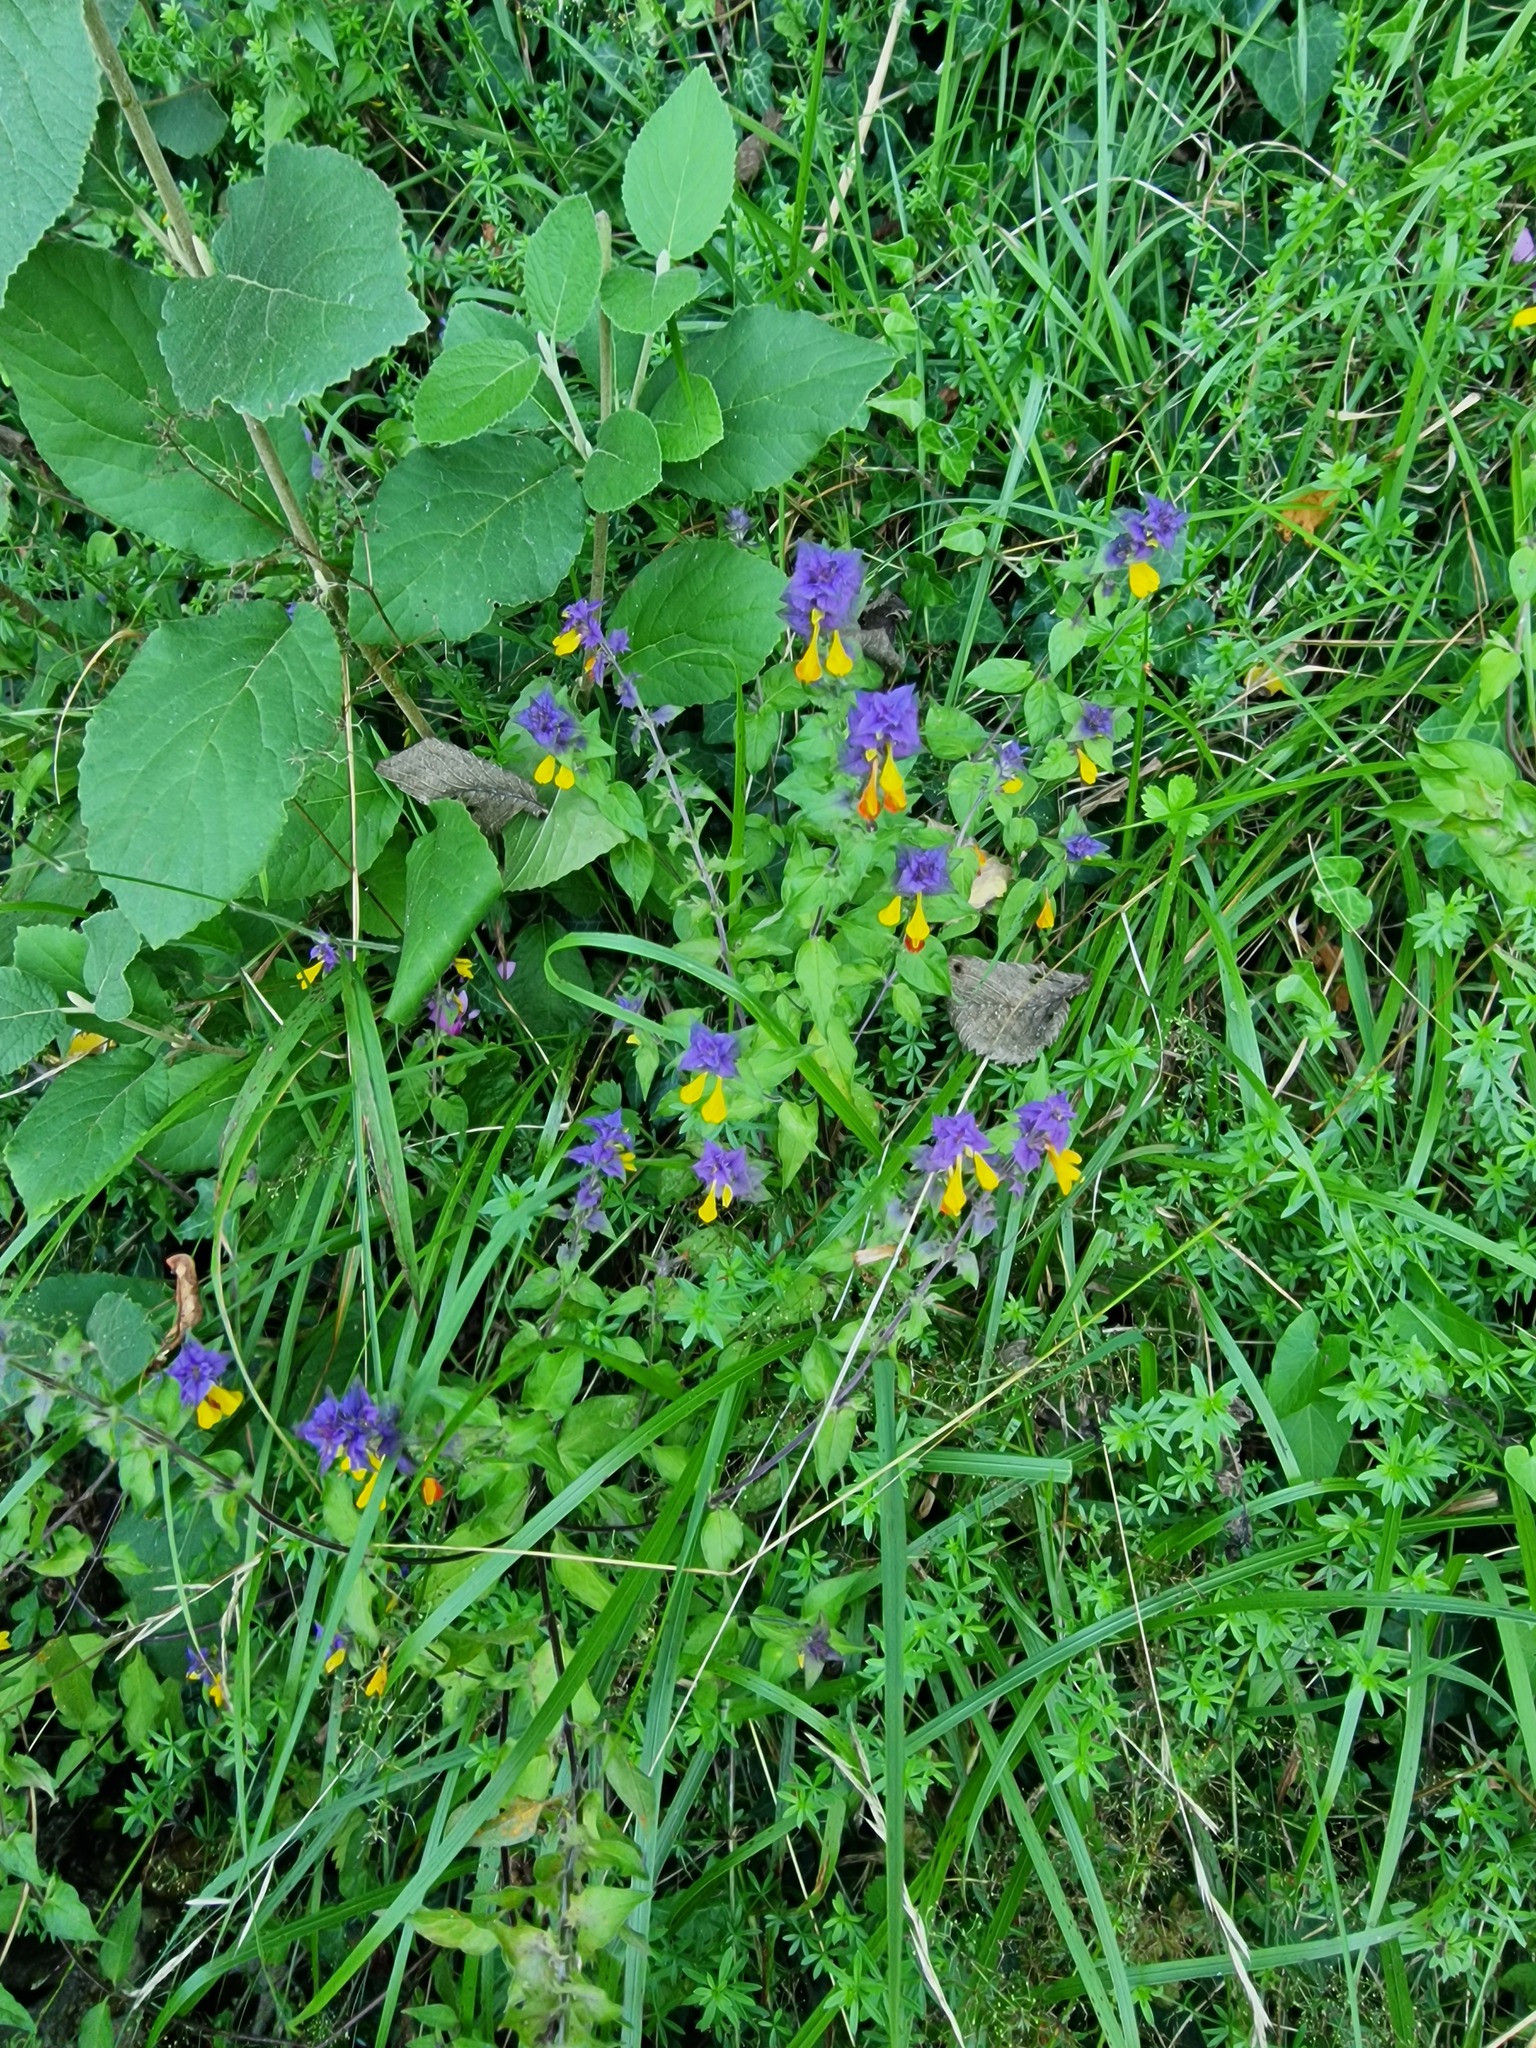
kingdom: Plantae
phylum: Tracheophyta
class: Magnoliopsida
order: Lamiales
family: Orobanchaceae
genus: Melampyrum
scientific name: Melampyrum nemorosum
